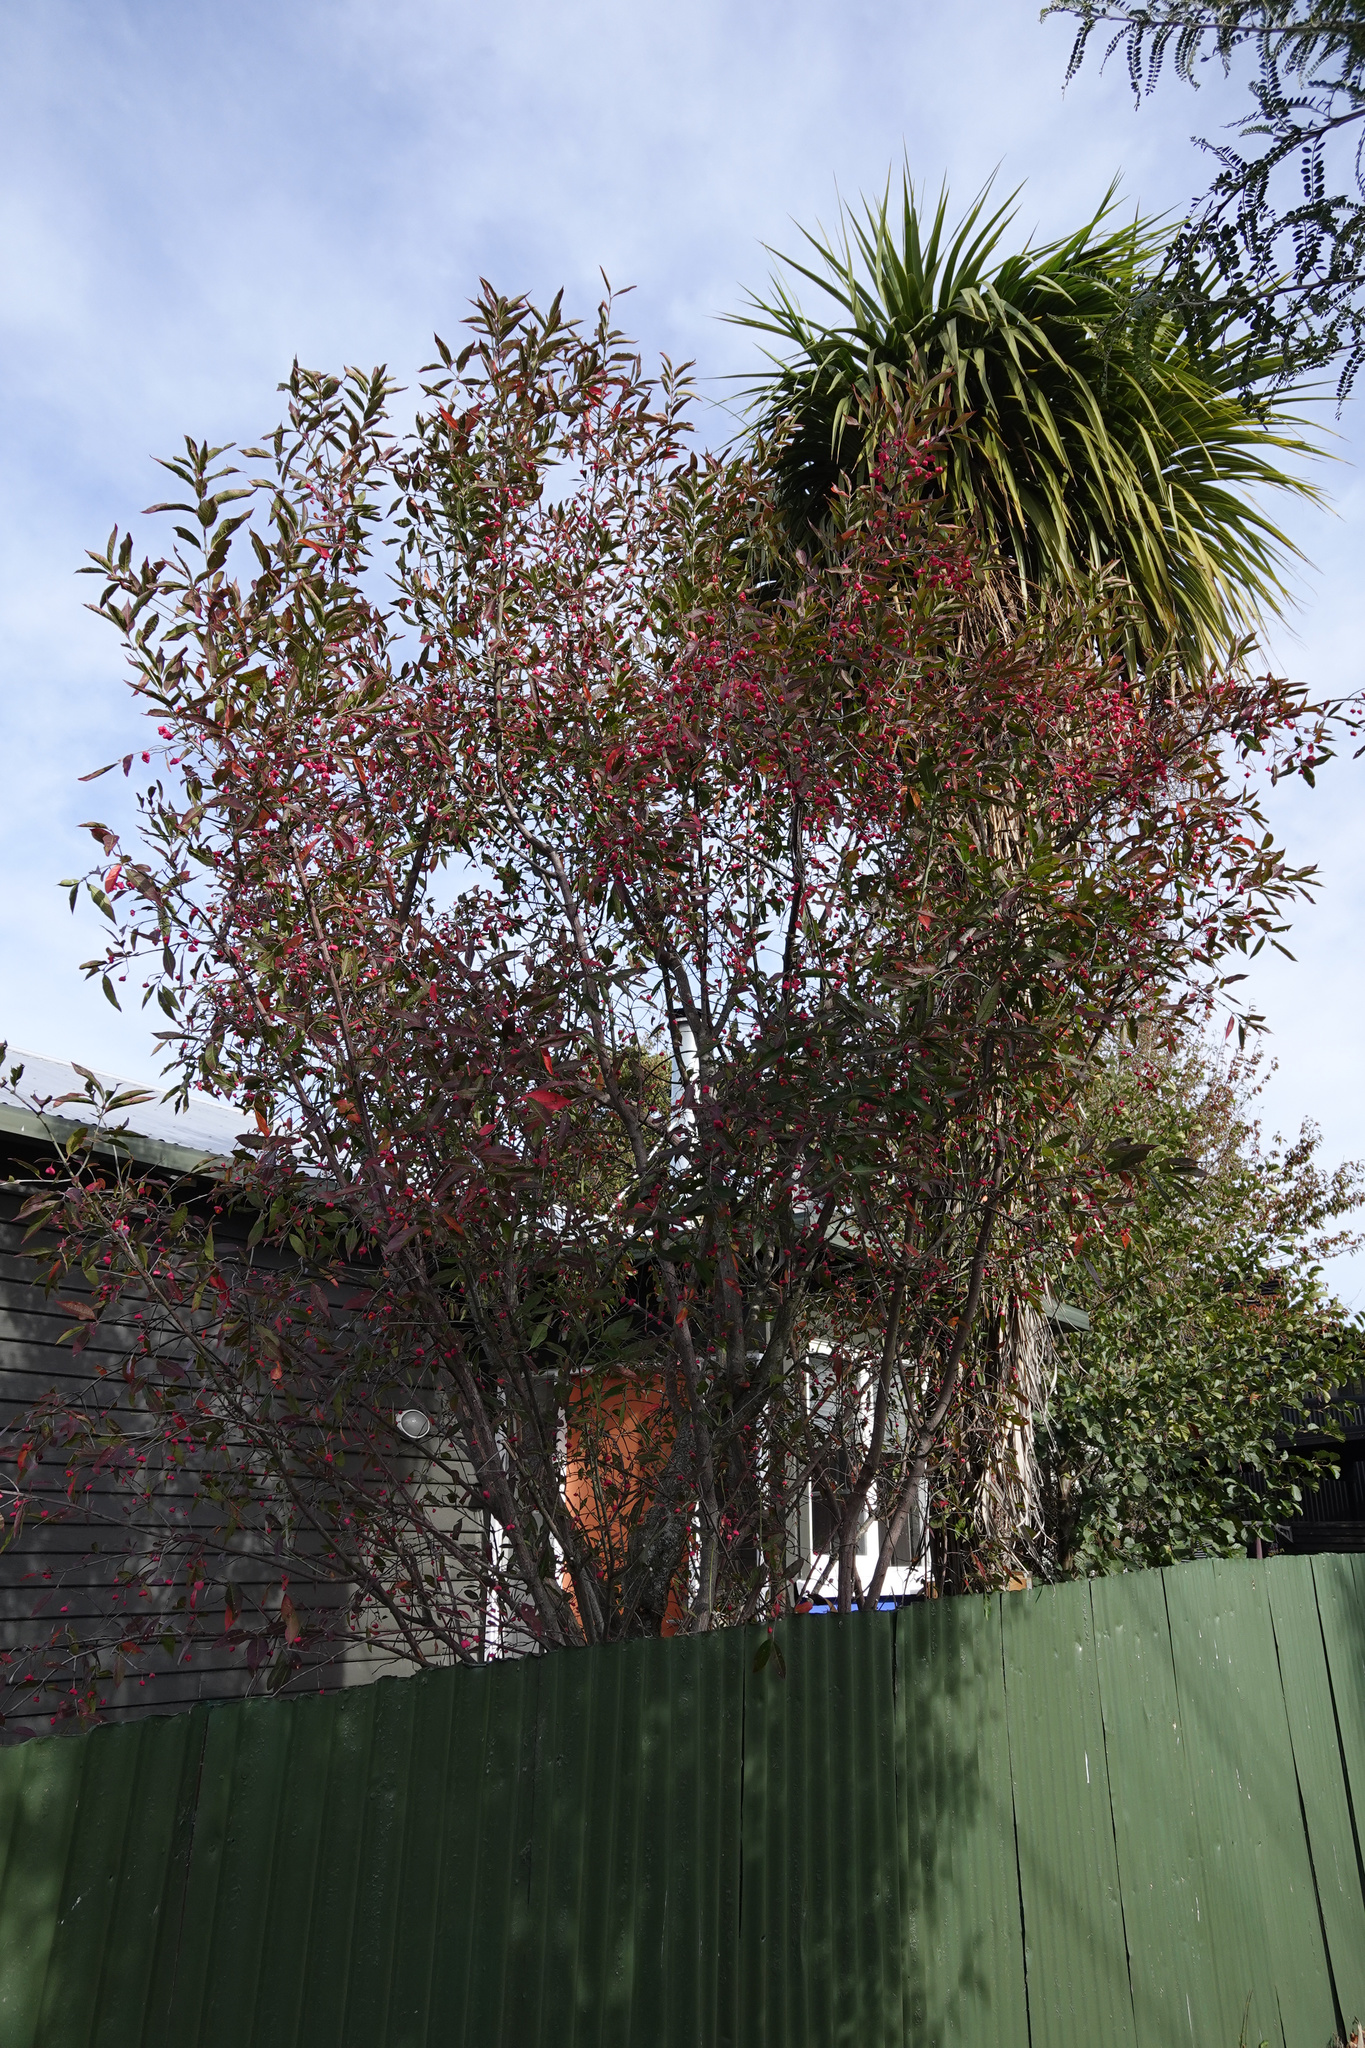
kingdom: Plantae
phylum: Tracheophyta
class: Magnoliopsida
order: Celastrales
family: Celastraceae
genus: Euonymus
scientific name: Euonymus europaeus
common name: Spindle
